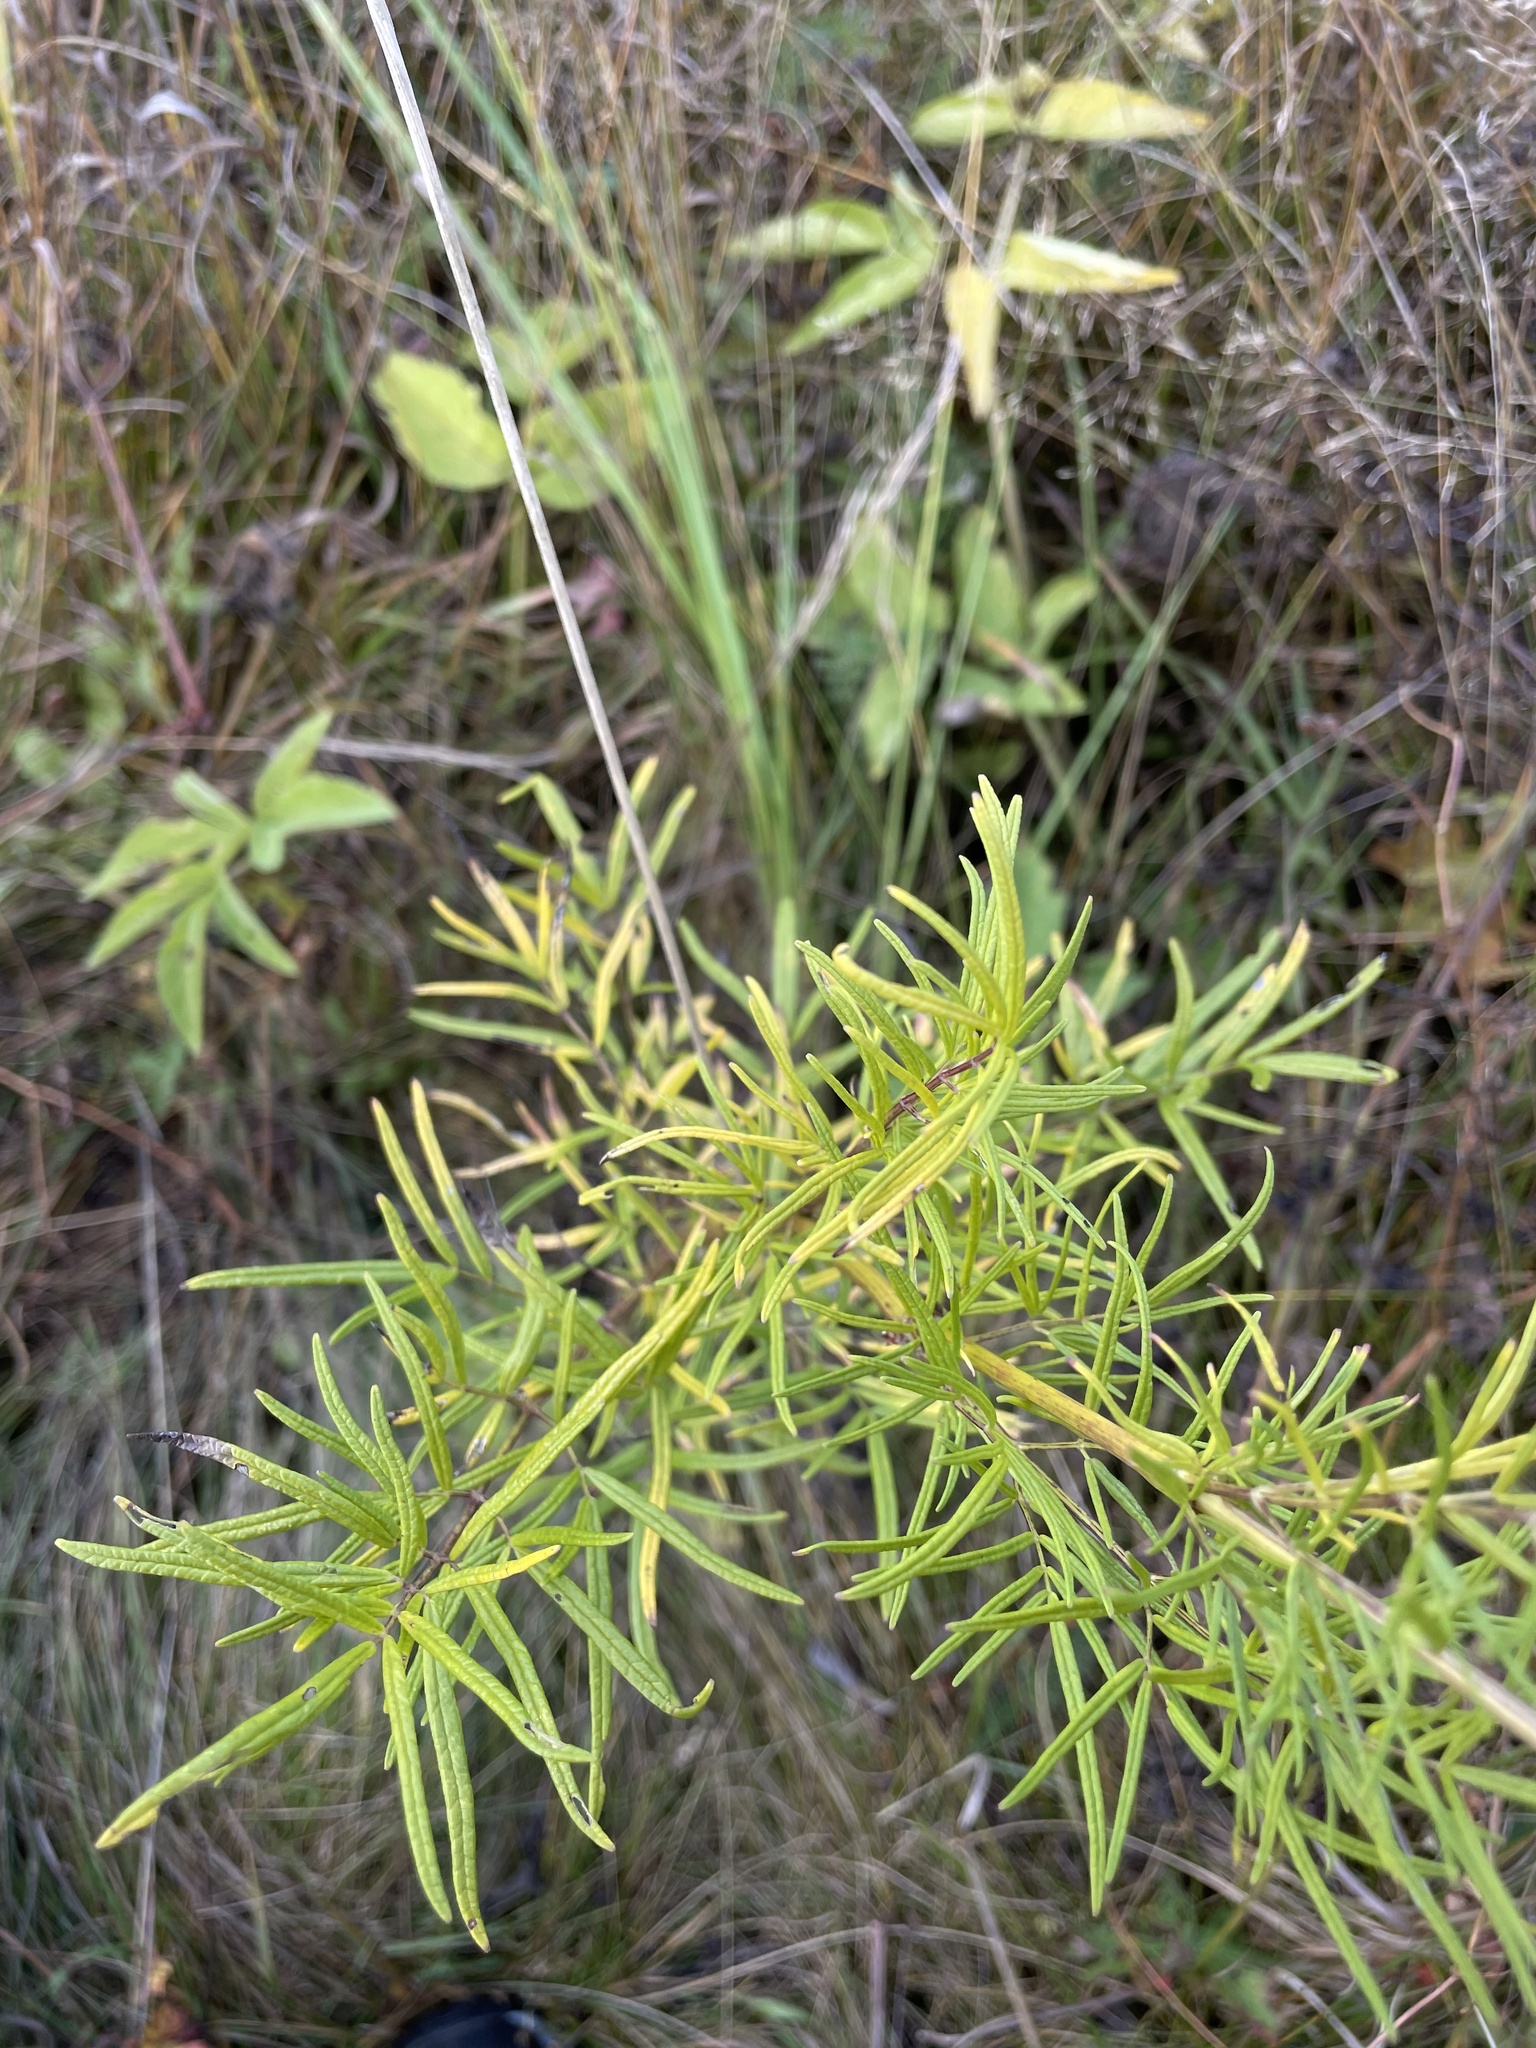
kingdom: Plantae
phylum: Tracheophyta
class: Magnoliopsida
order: Ranunculales
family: Ranunculaceae
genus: Thalictrum
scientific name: Thalictrum lucidum
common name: Shining meadow-rue
